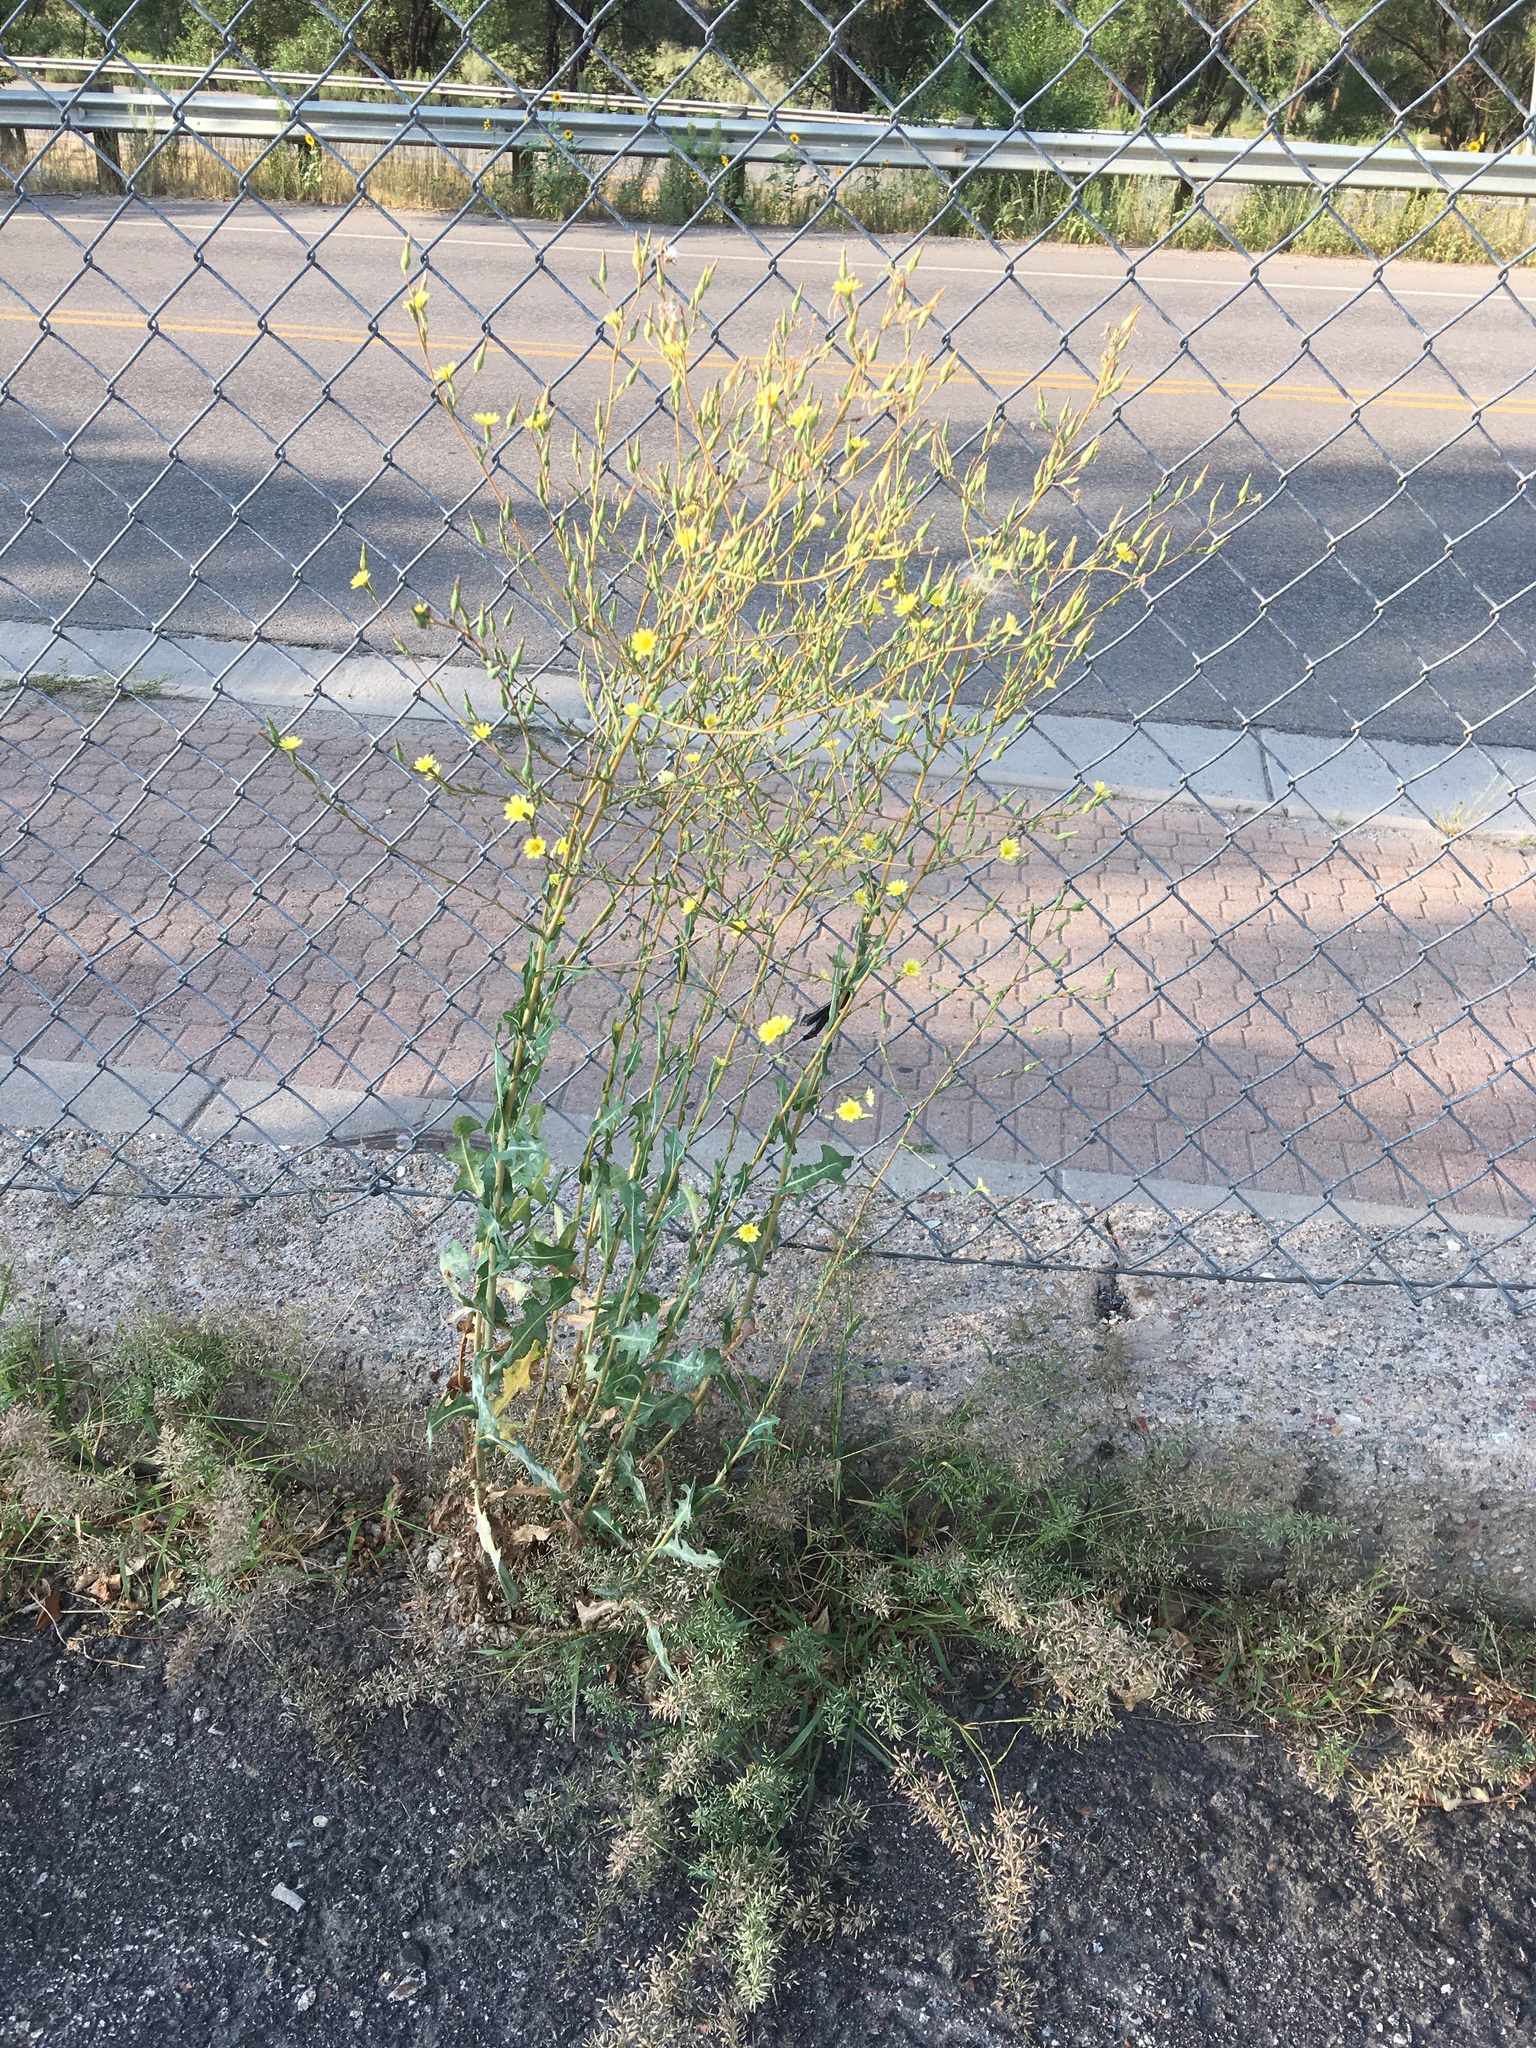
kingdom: Plantae
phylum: Tracheophyta
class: Magnoliopsida
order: Asterales
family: Asteraceae
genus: Lactuca
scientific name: Lactuca serriola
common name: Prickly lettuce
